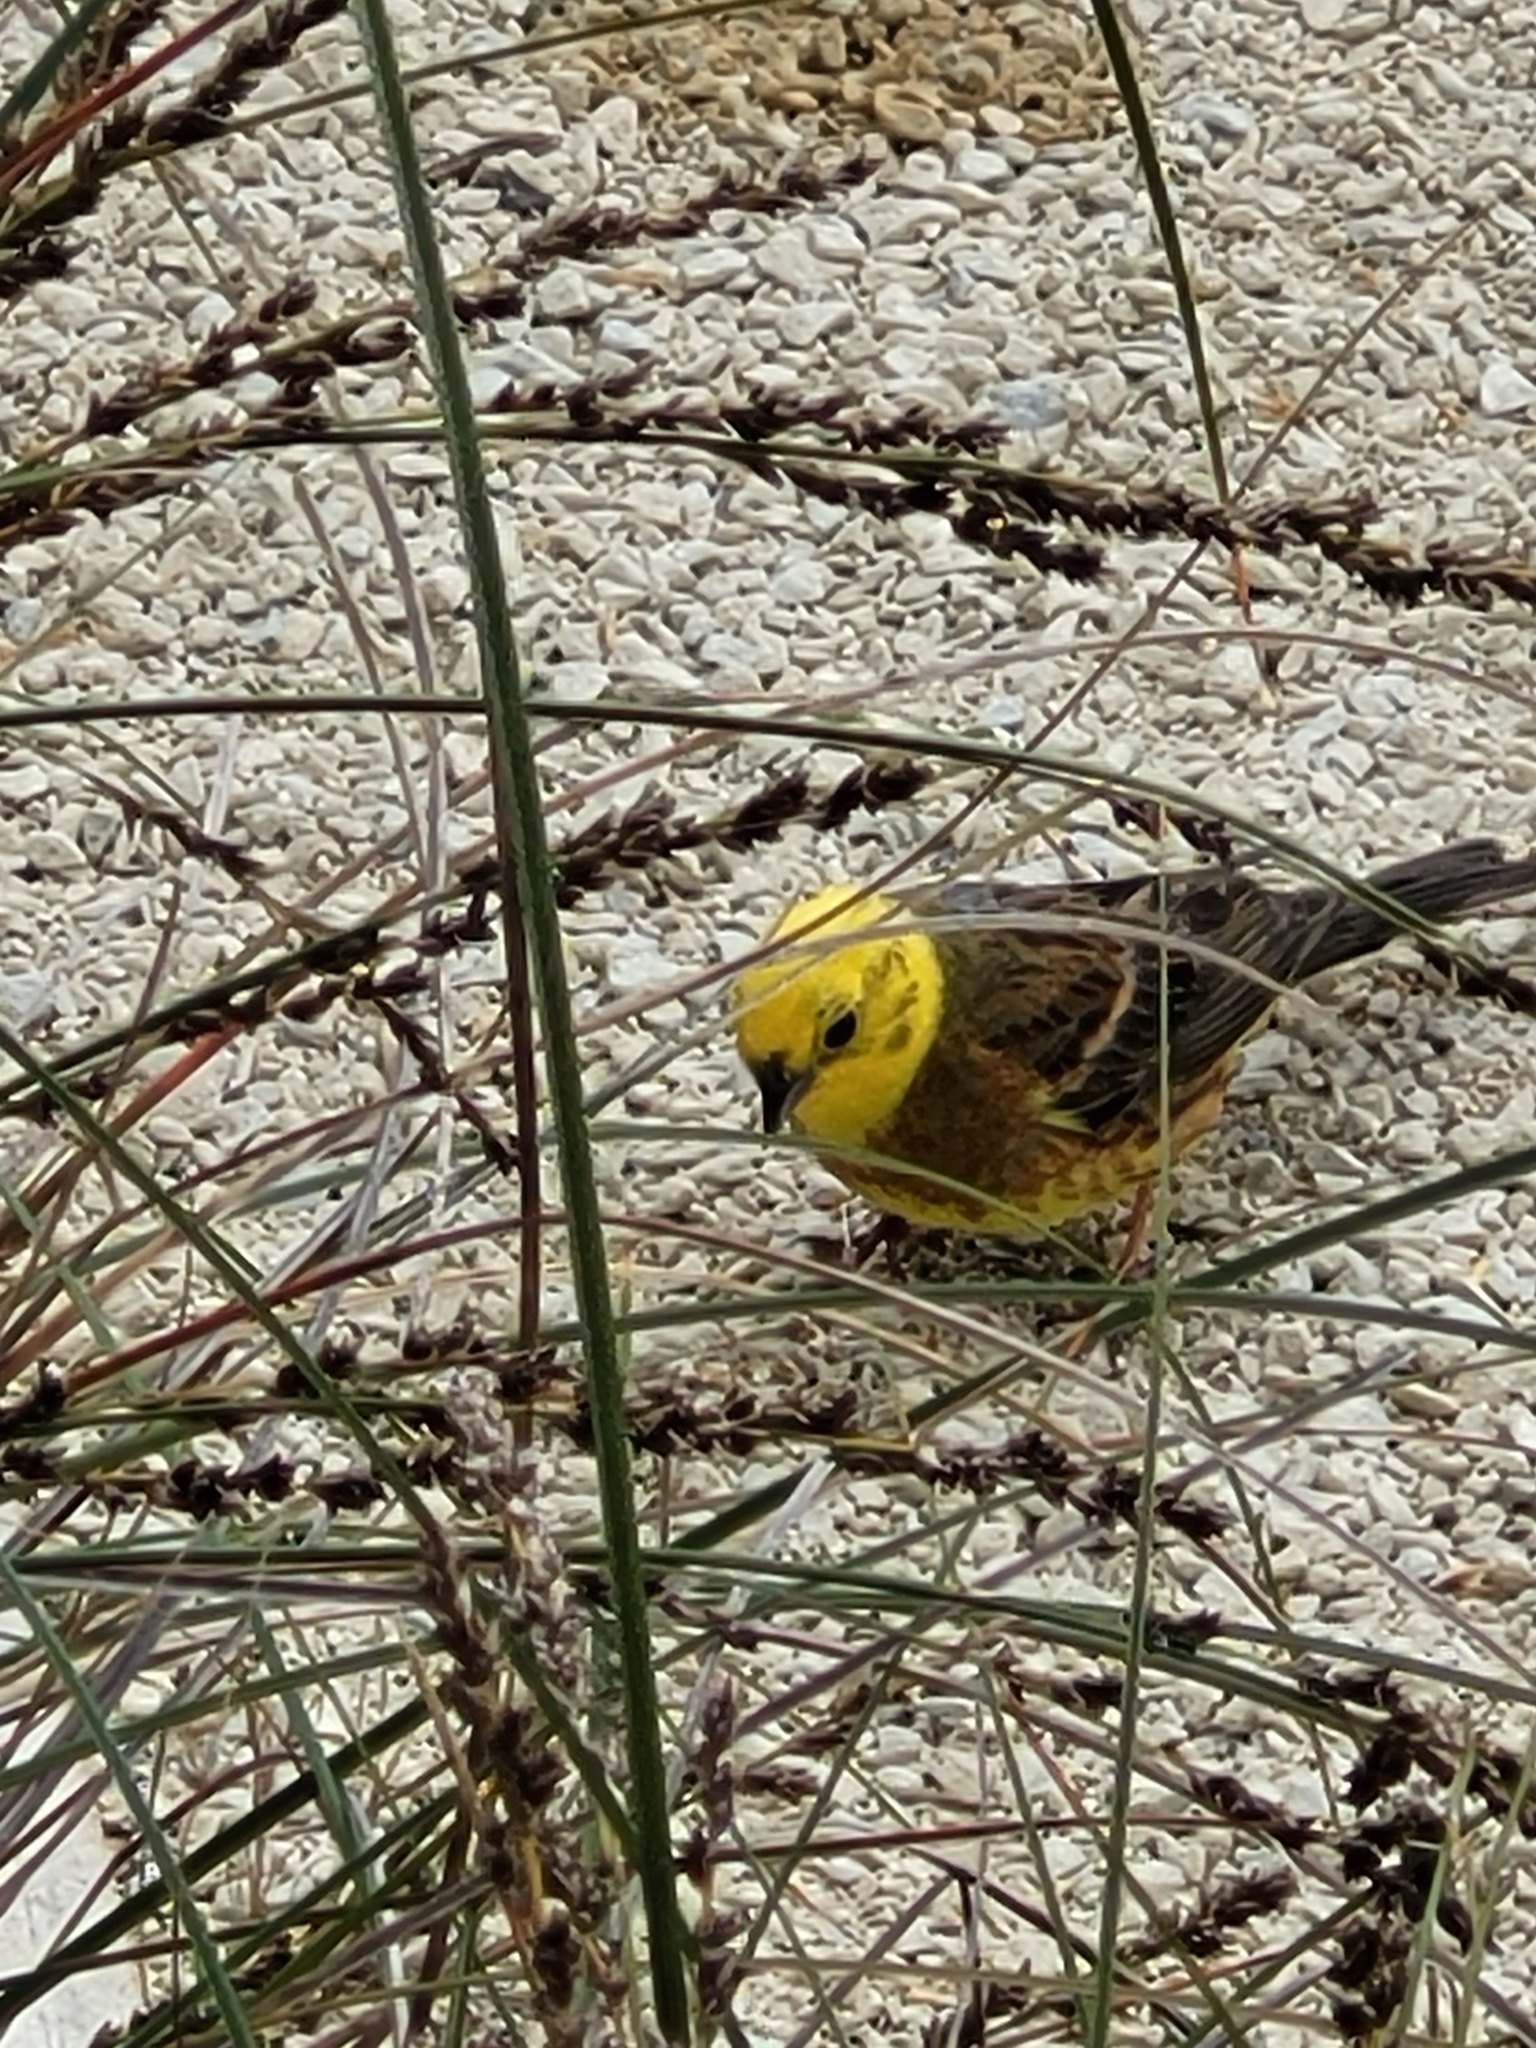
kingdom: Animalia
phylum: Chordata
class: Aves
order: Passeriformes
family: Emberizidae
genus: Emberiza
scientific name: Emberiza citrinella
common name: Yellowhammer
